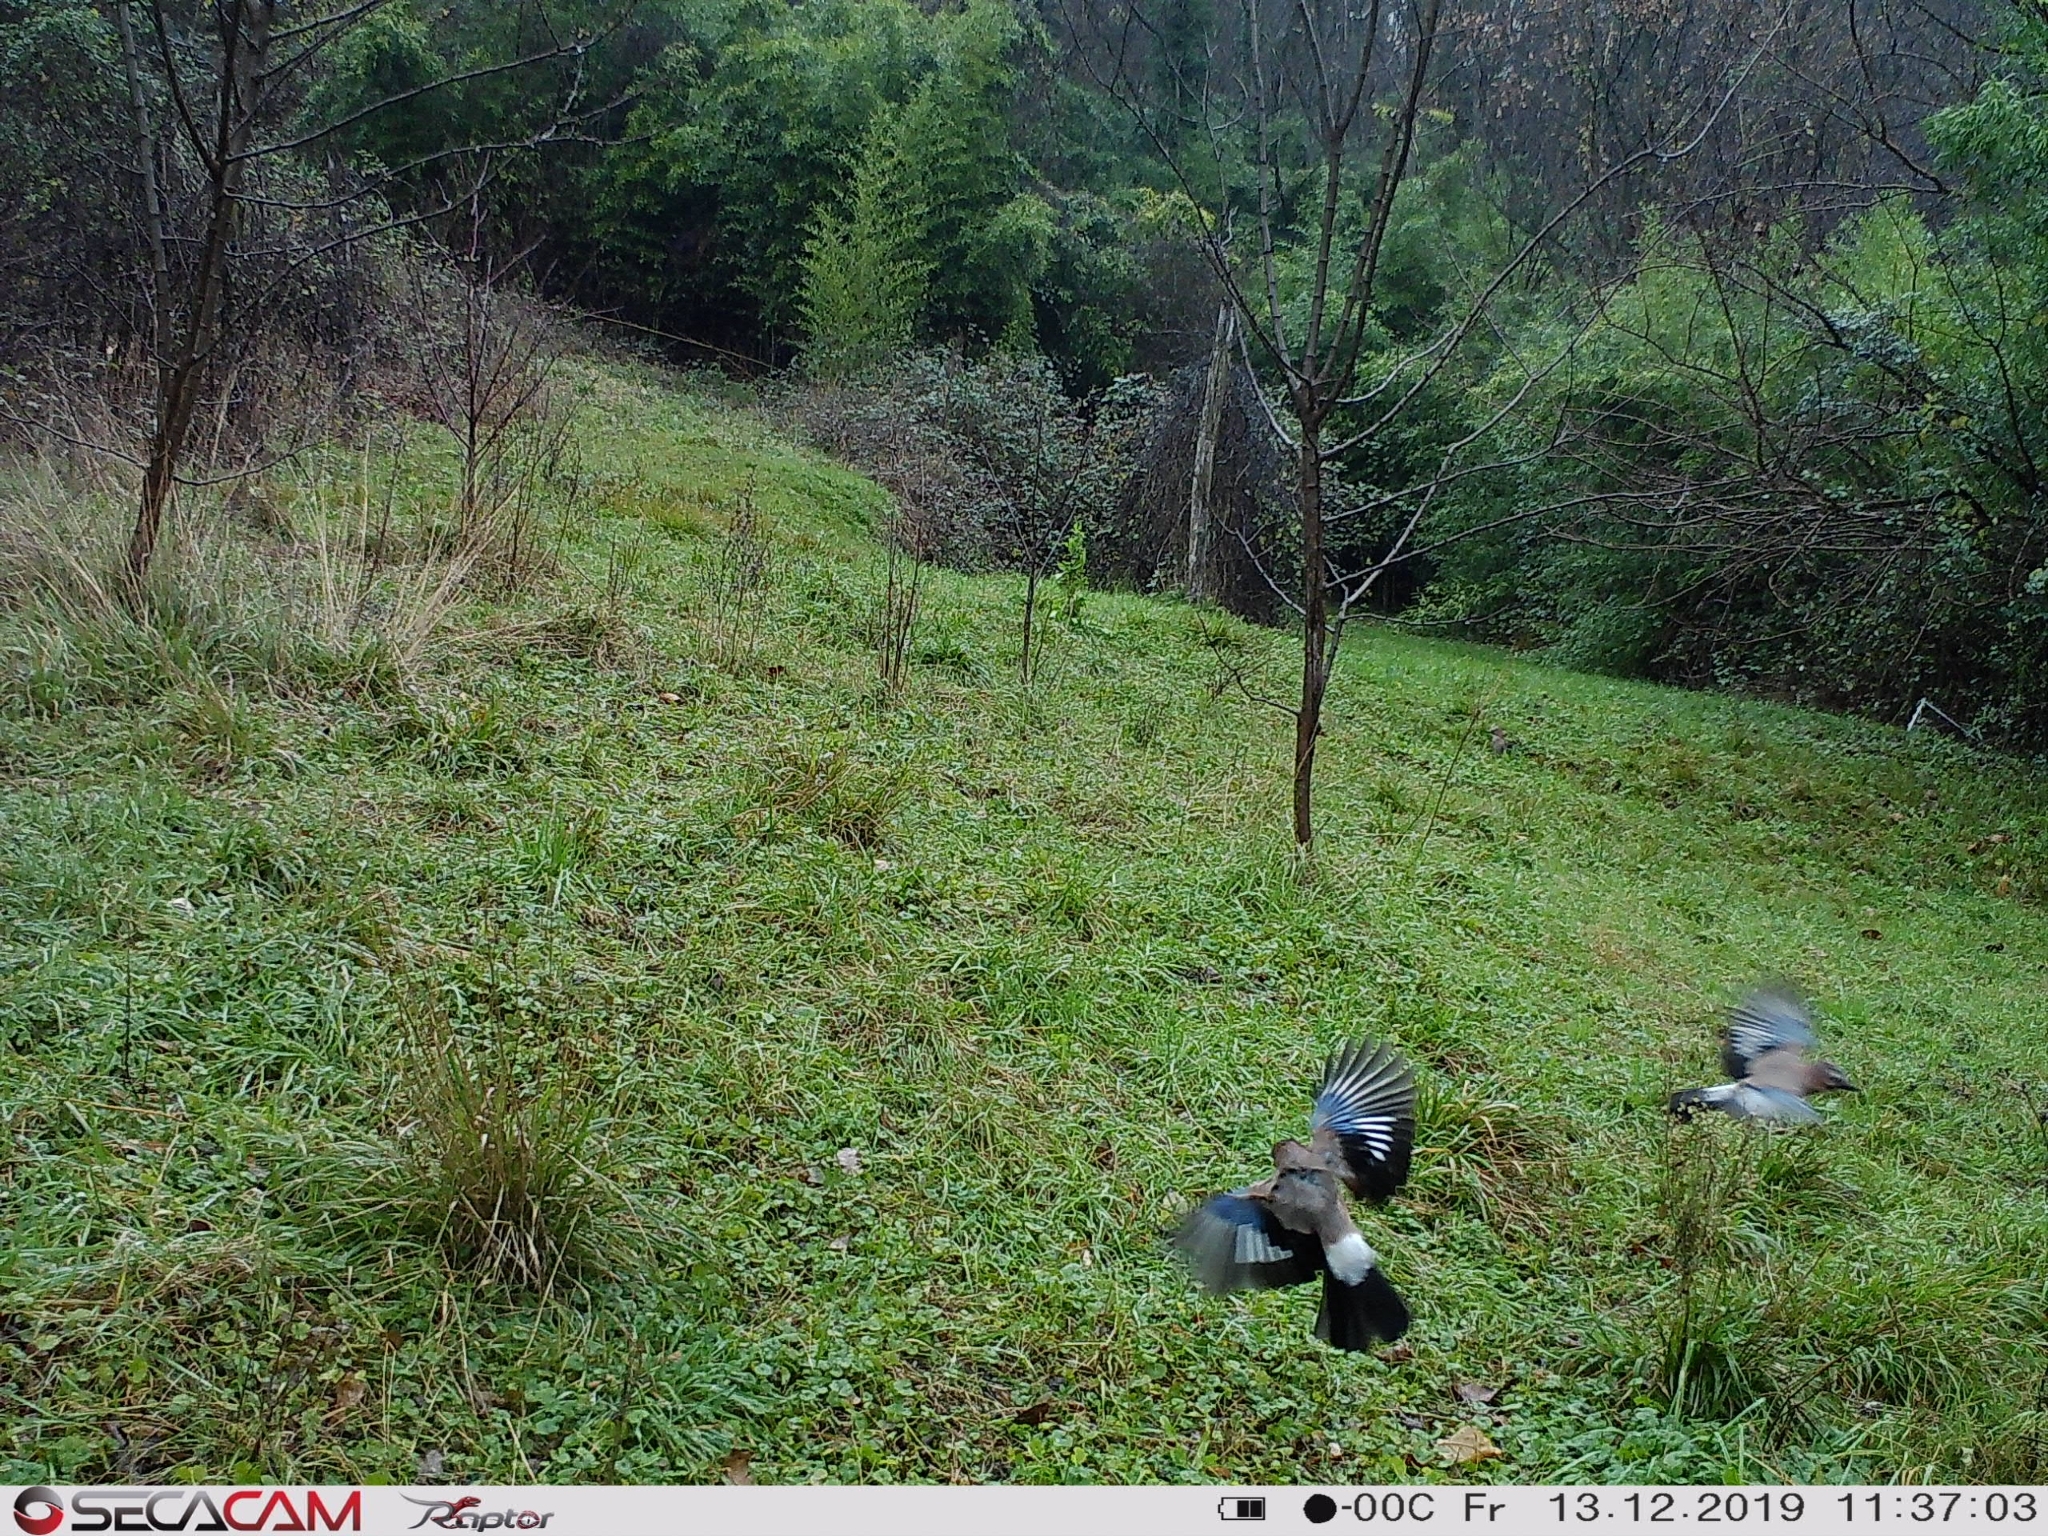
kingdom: Animalia
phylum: Chordata
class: Aves
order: Passeriformes
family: Corvidae
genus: Garrulus
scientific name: Garrulus glandarius
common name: Eurasian jay
